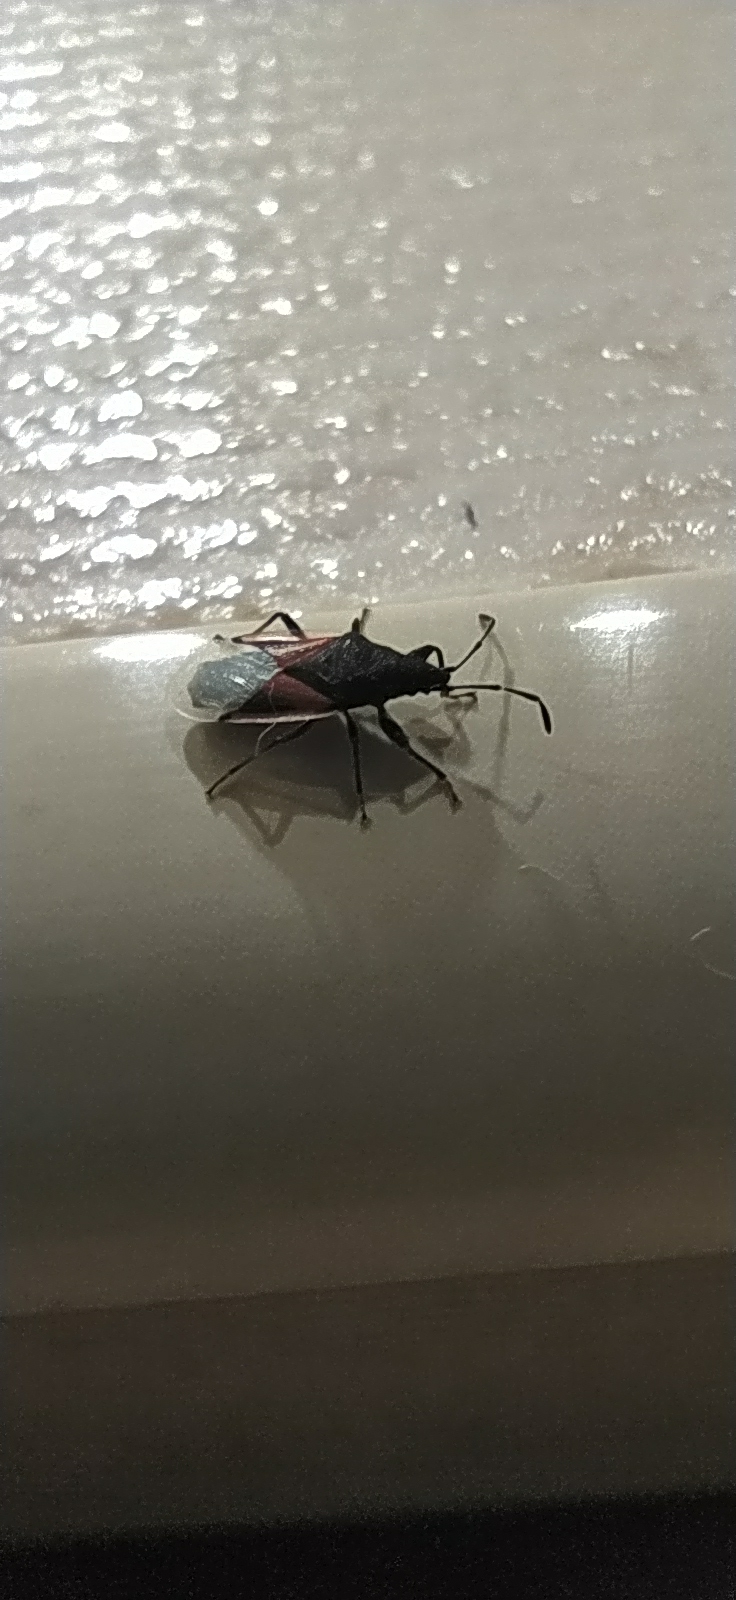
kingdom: Animalia
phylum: Arthropoda
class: Insecta
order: Hemiptera
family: Oxycarenidae
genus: Oxycarenus
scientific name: Oxycarenus lavaterae
